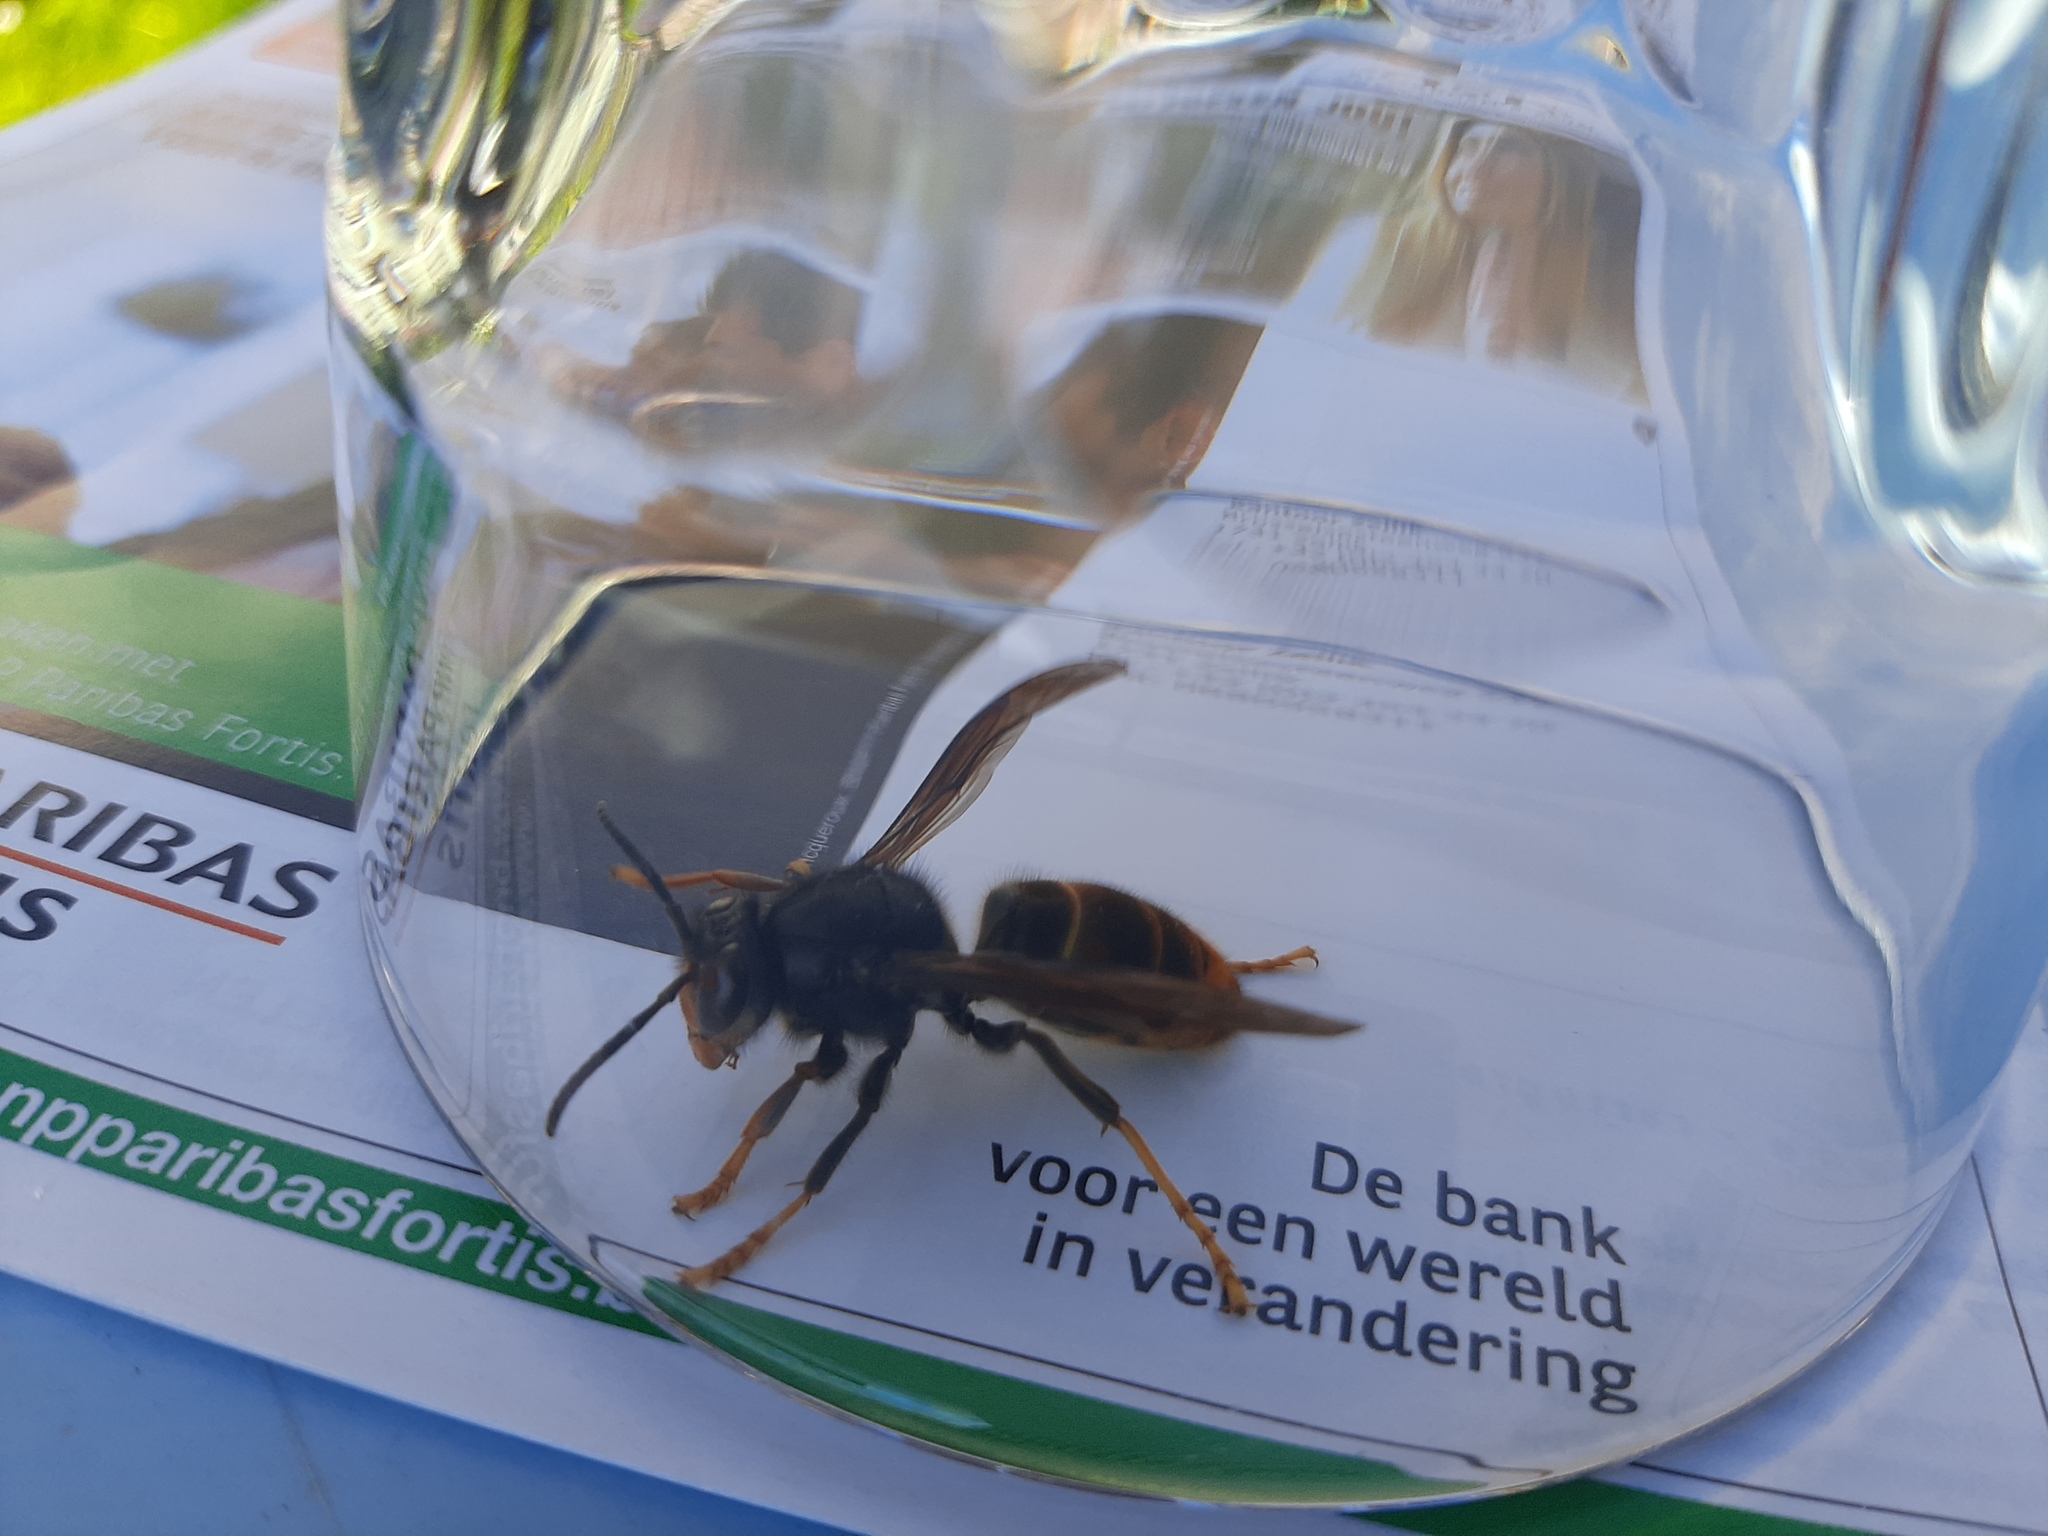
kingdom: Animalia
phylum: Arthropoda
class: Insecta
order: Hymenoptera
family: Vespidae
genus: Vespa
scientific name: Vespa velutina
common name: Asian hornet
